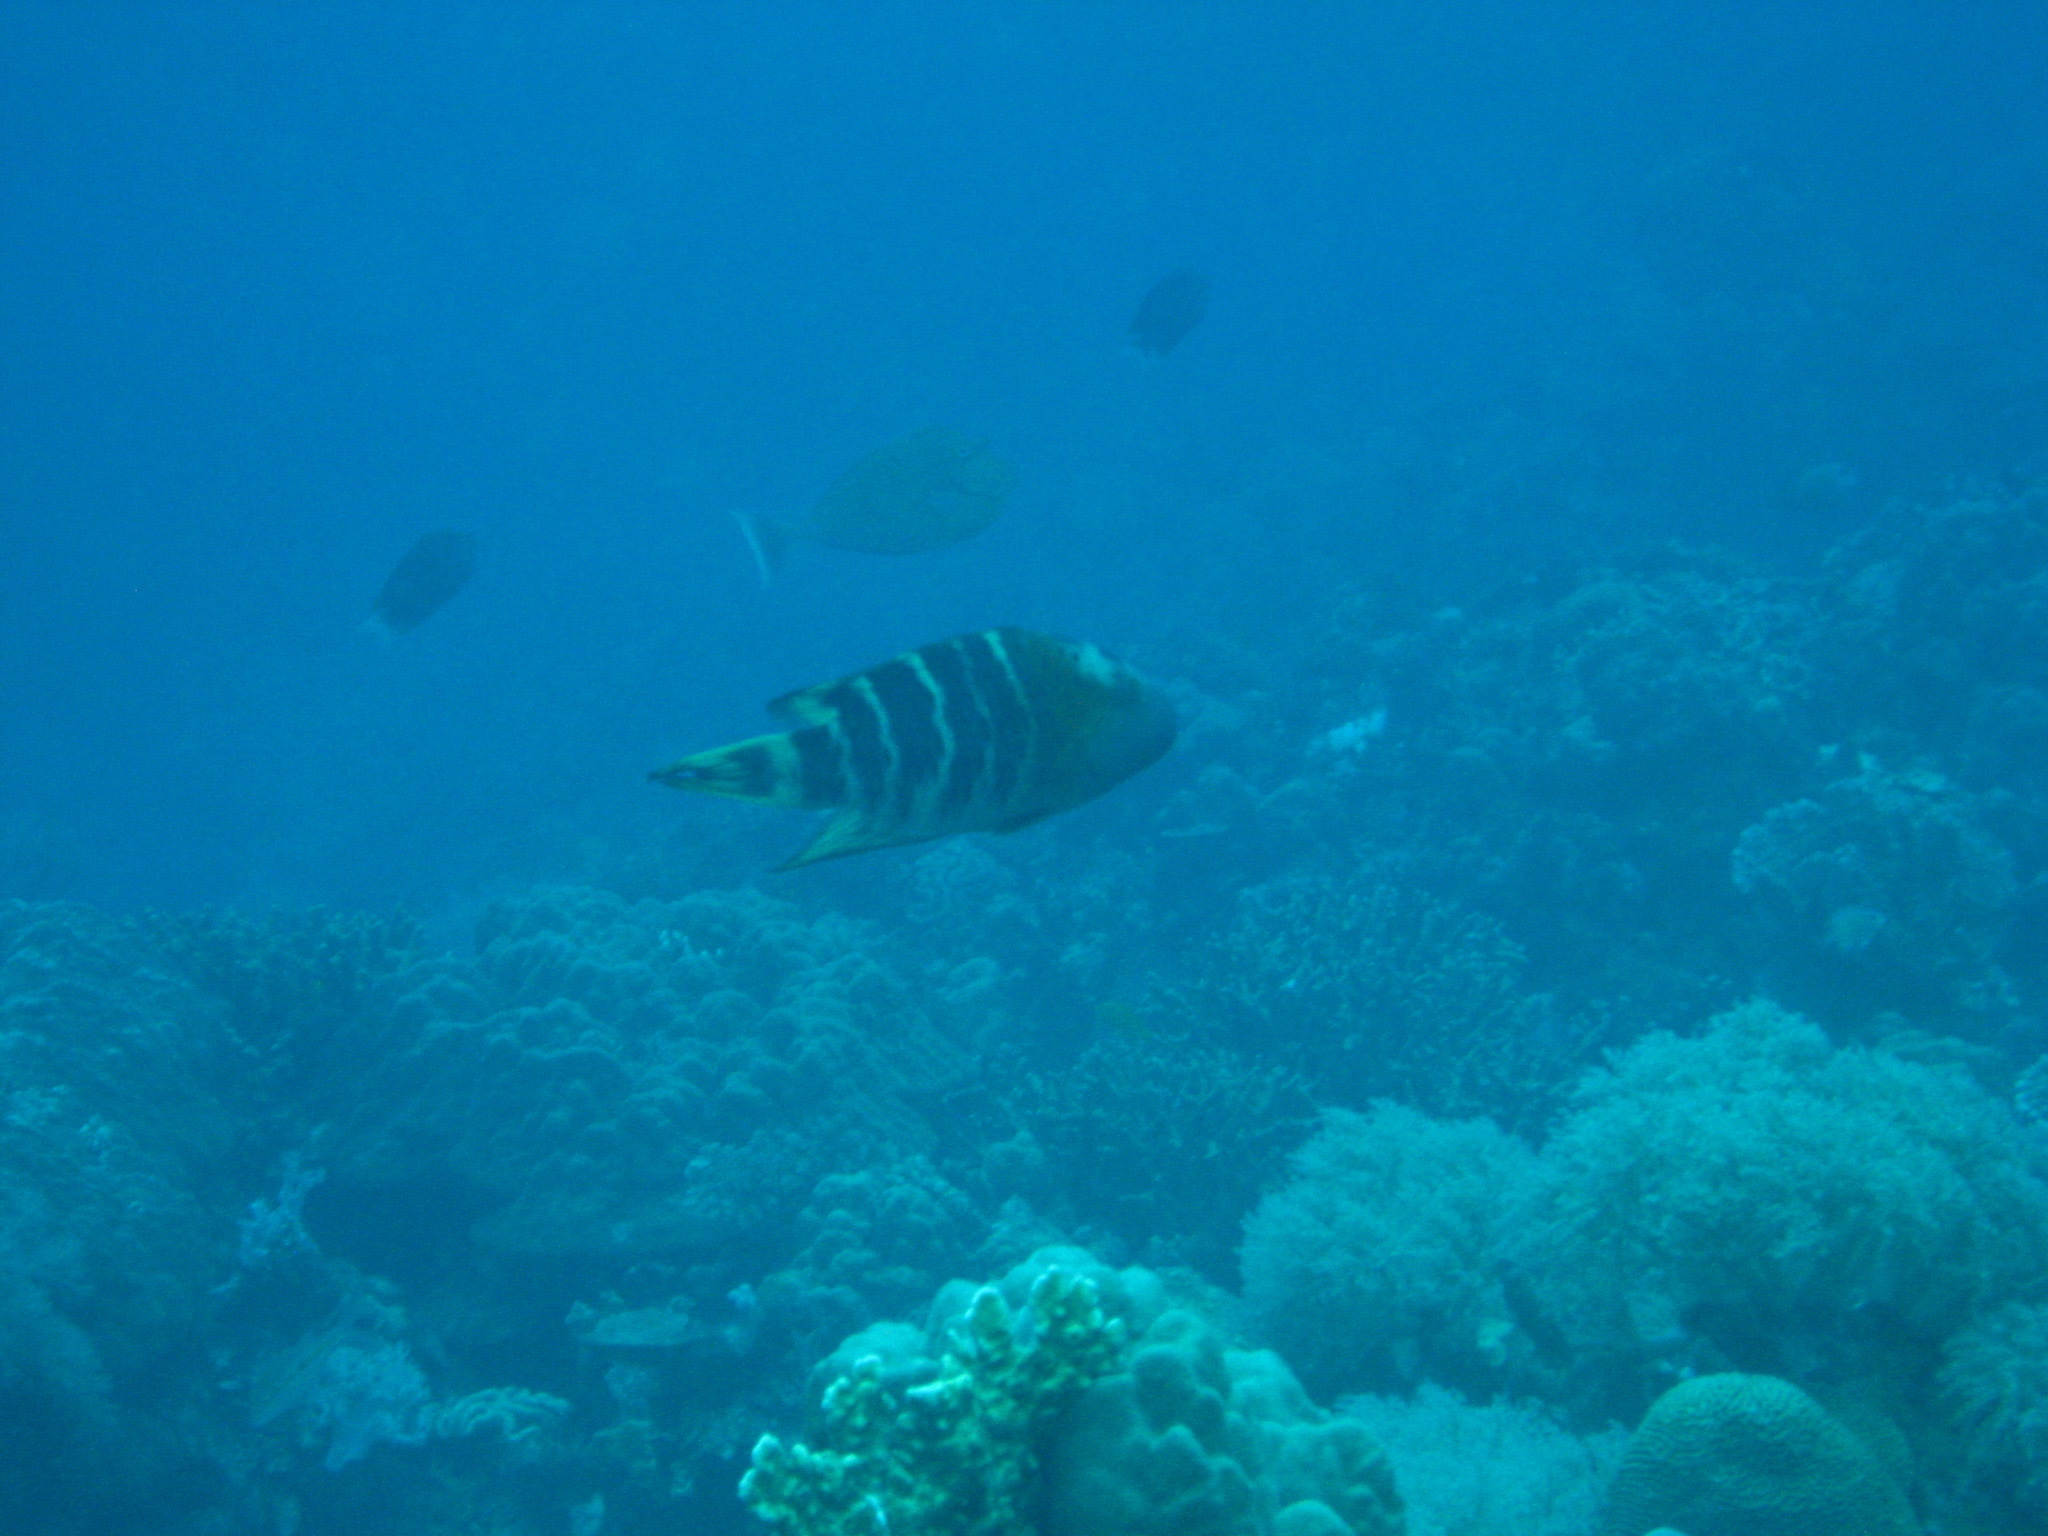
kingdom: Animalia
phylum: Chordata
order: Perciformes
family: Labridae
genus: Cheilinus
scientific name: Cheilinus fasciatus
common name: Red-breasted wrasse
